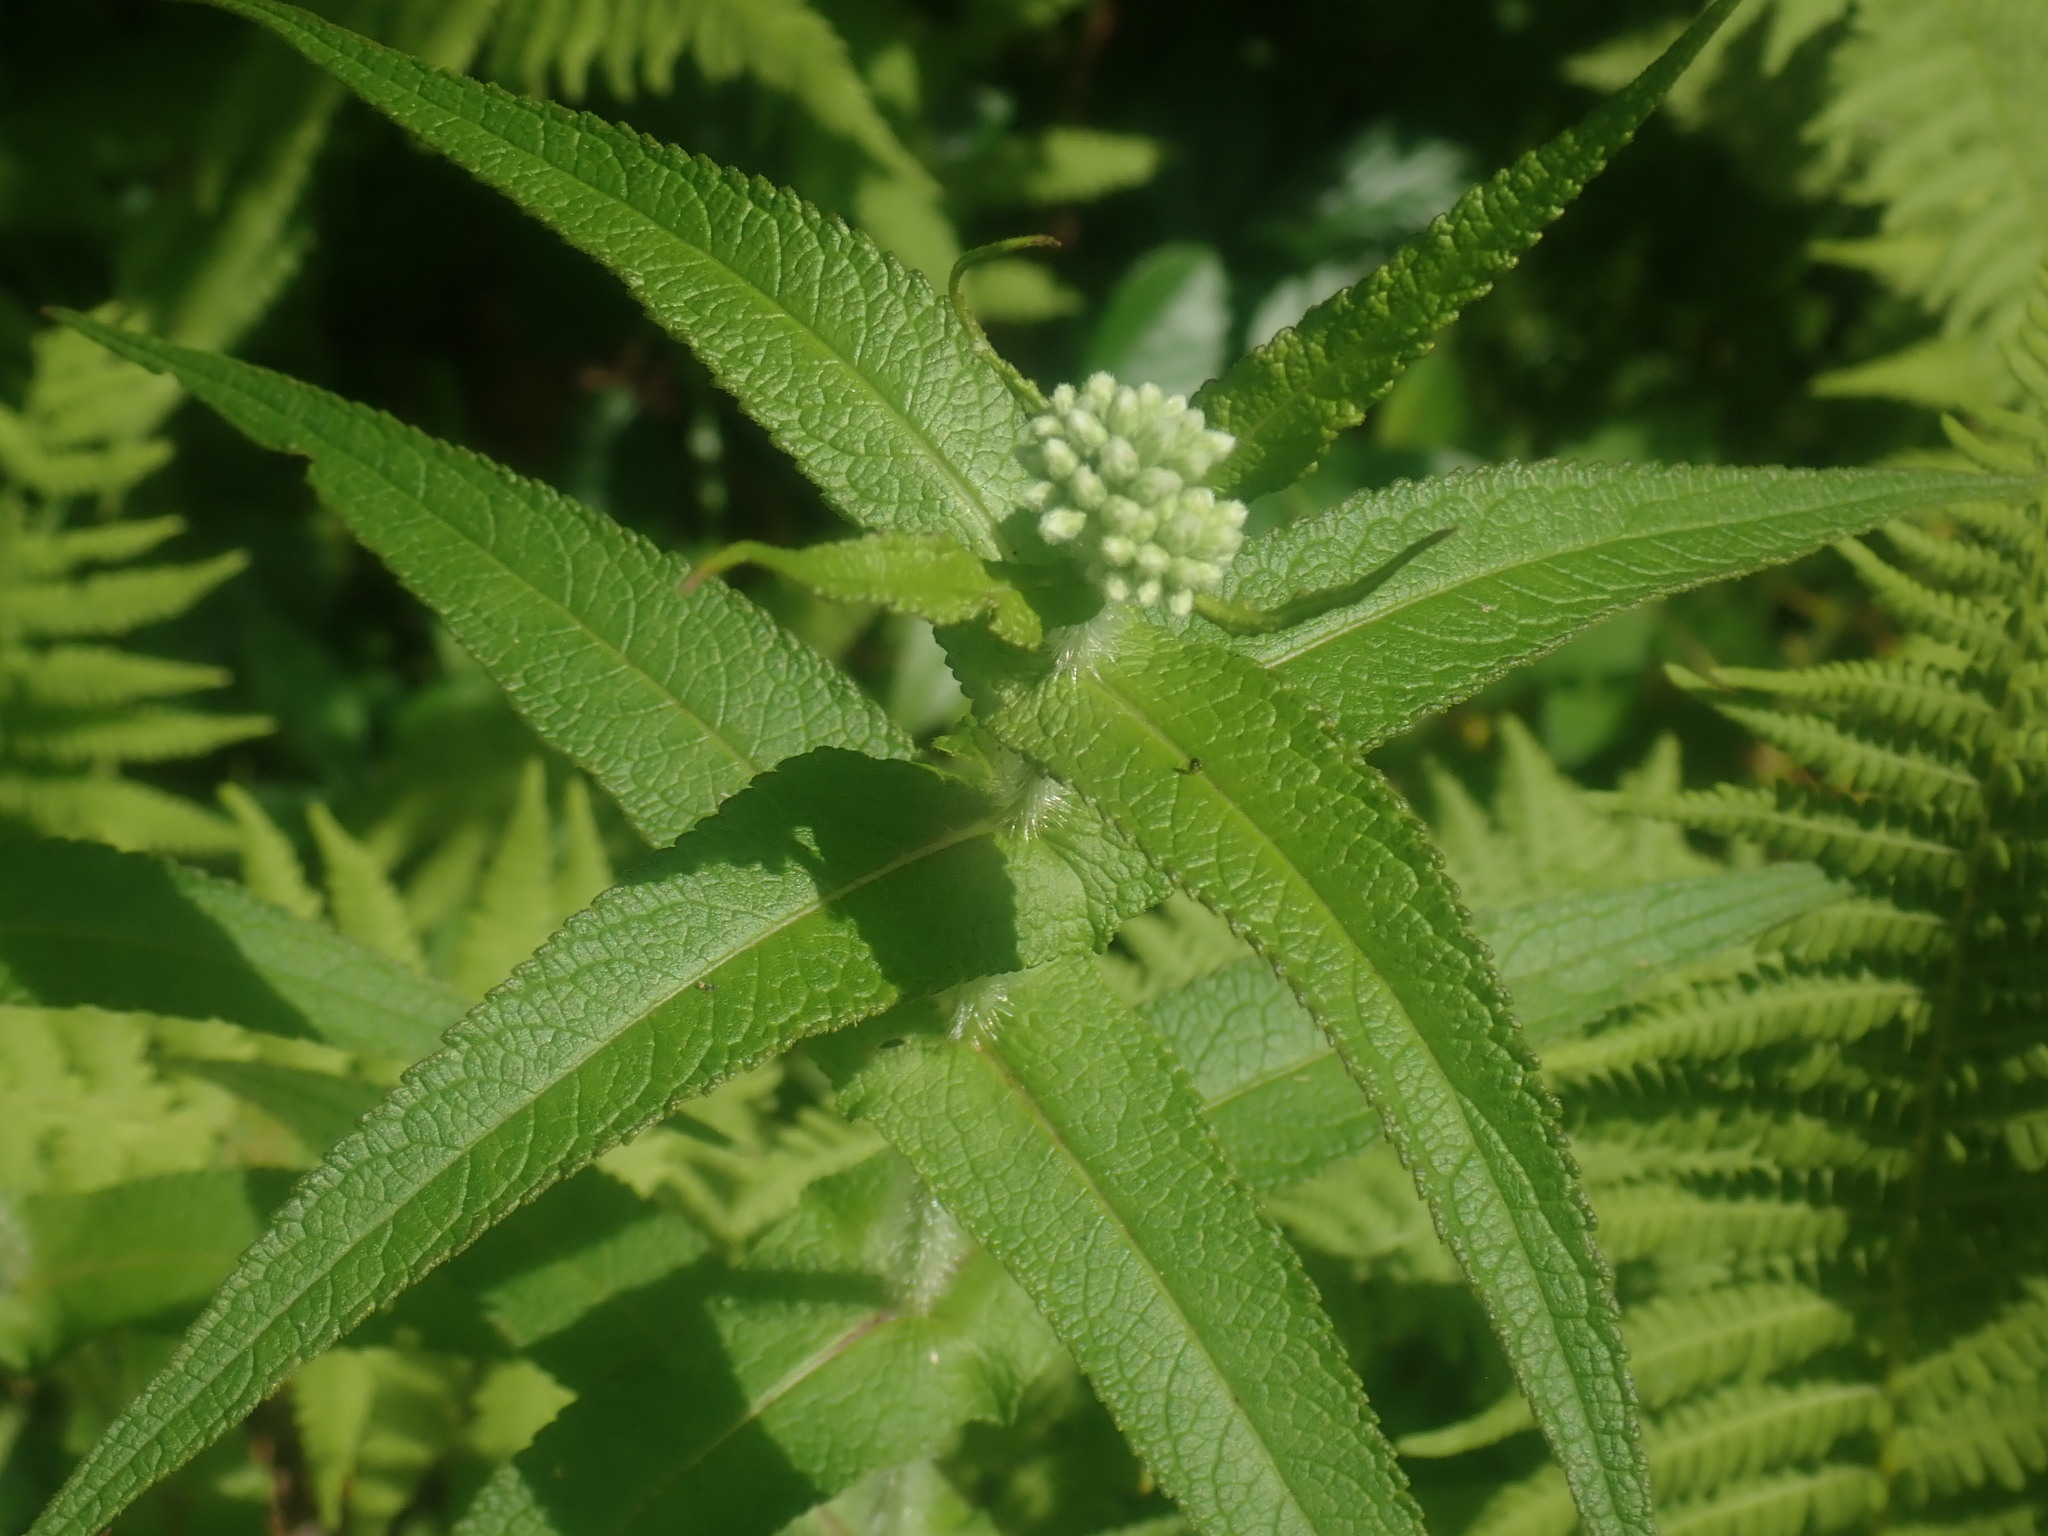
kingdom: Plantae
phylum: Tracheophyta
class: Magnoliopsida
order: Asterales
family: Asteraceae
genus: Eupatorium
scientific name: Eupatorium perfoliatum
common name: Boneset
